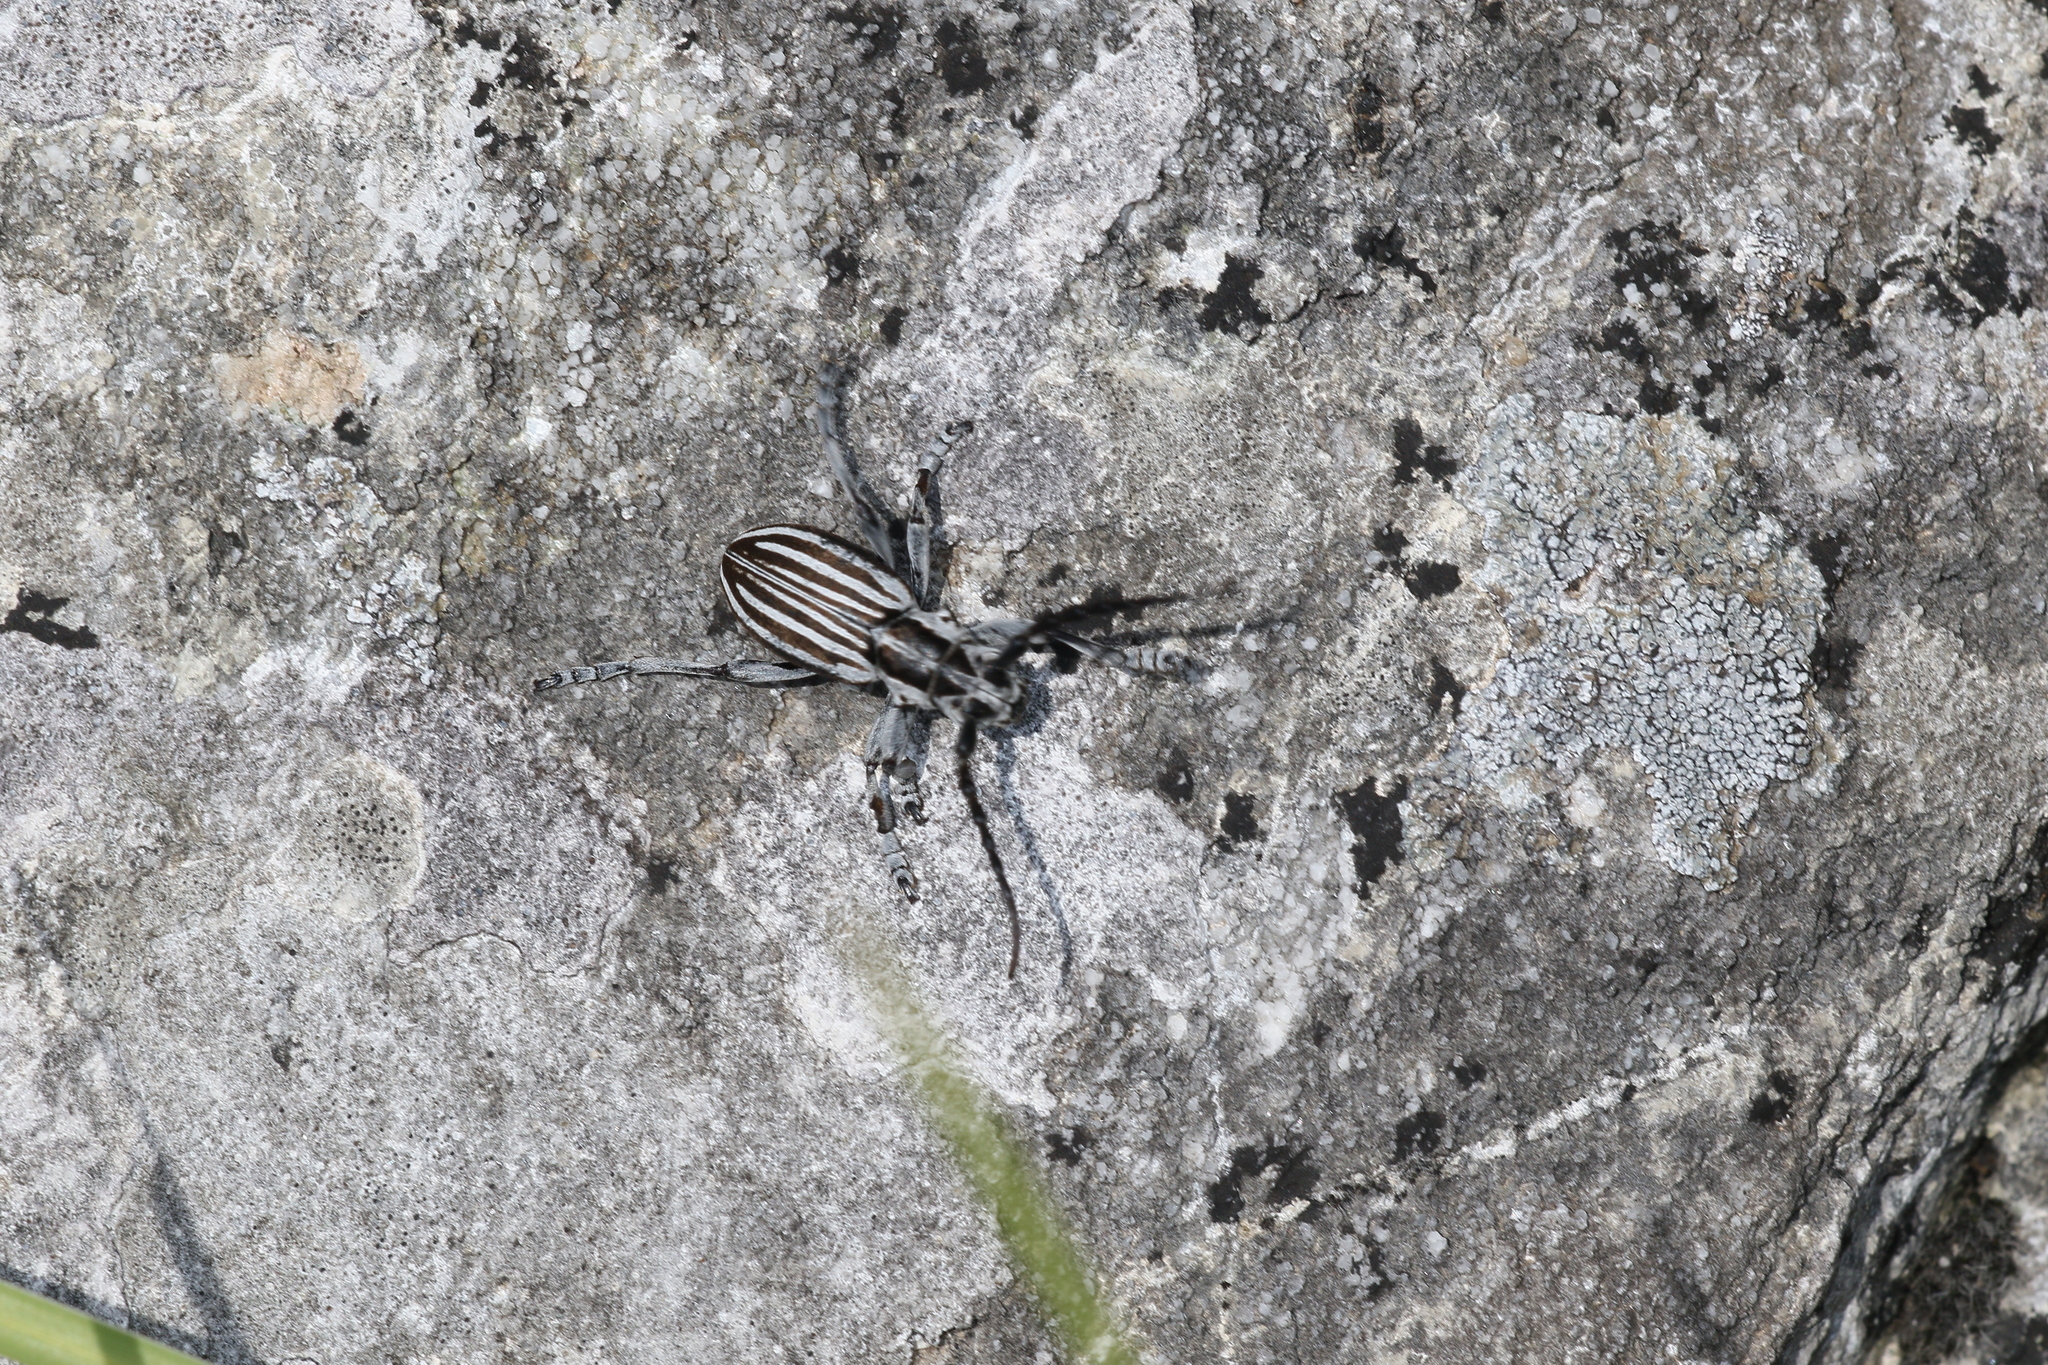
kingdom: Animalia
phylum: Arthropoda
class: Insecta
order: Coleoptera
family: Cerambycidae
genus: Dorcadion
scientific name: Dorcadion buresi
